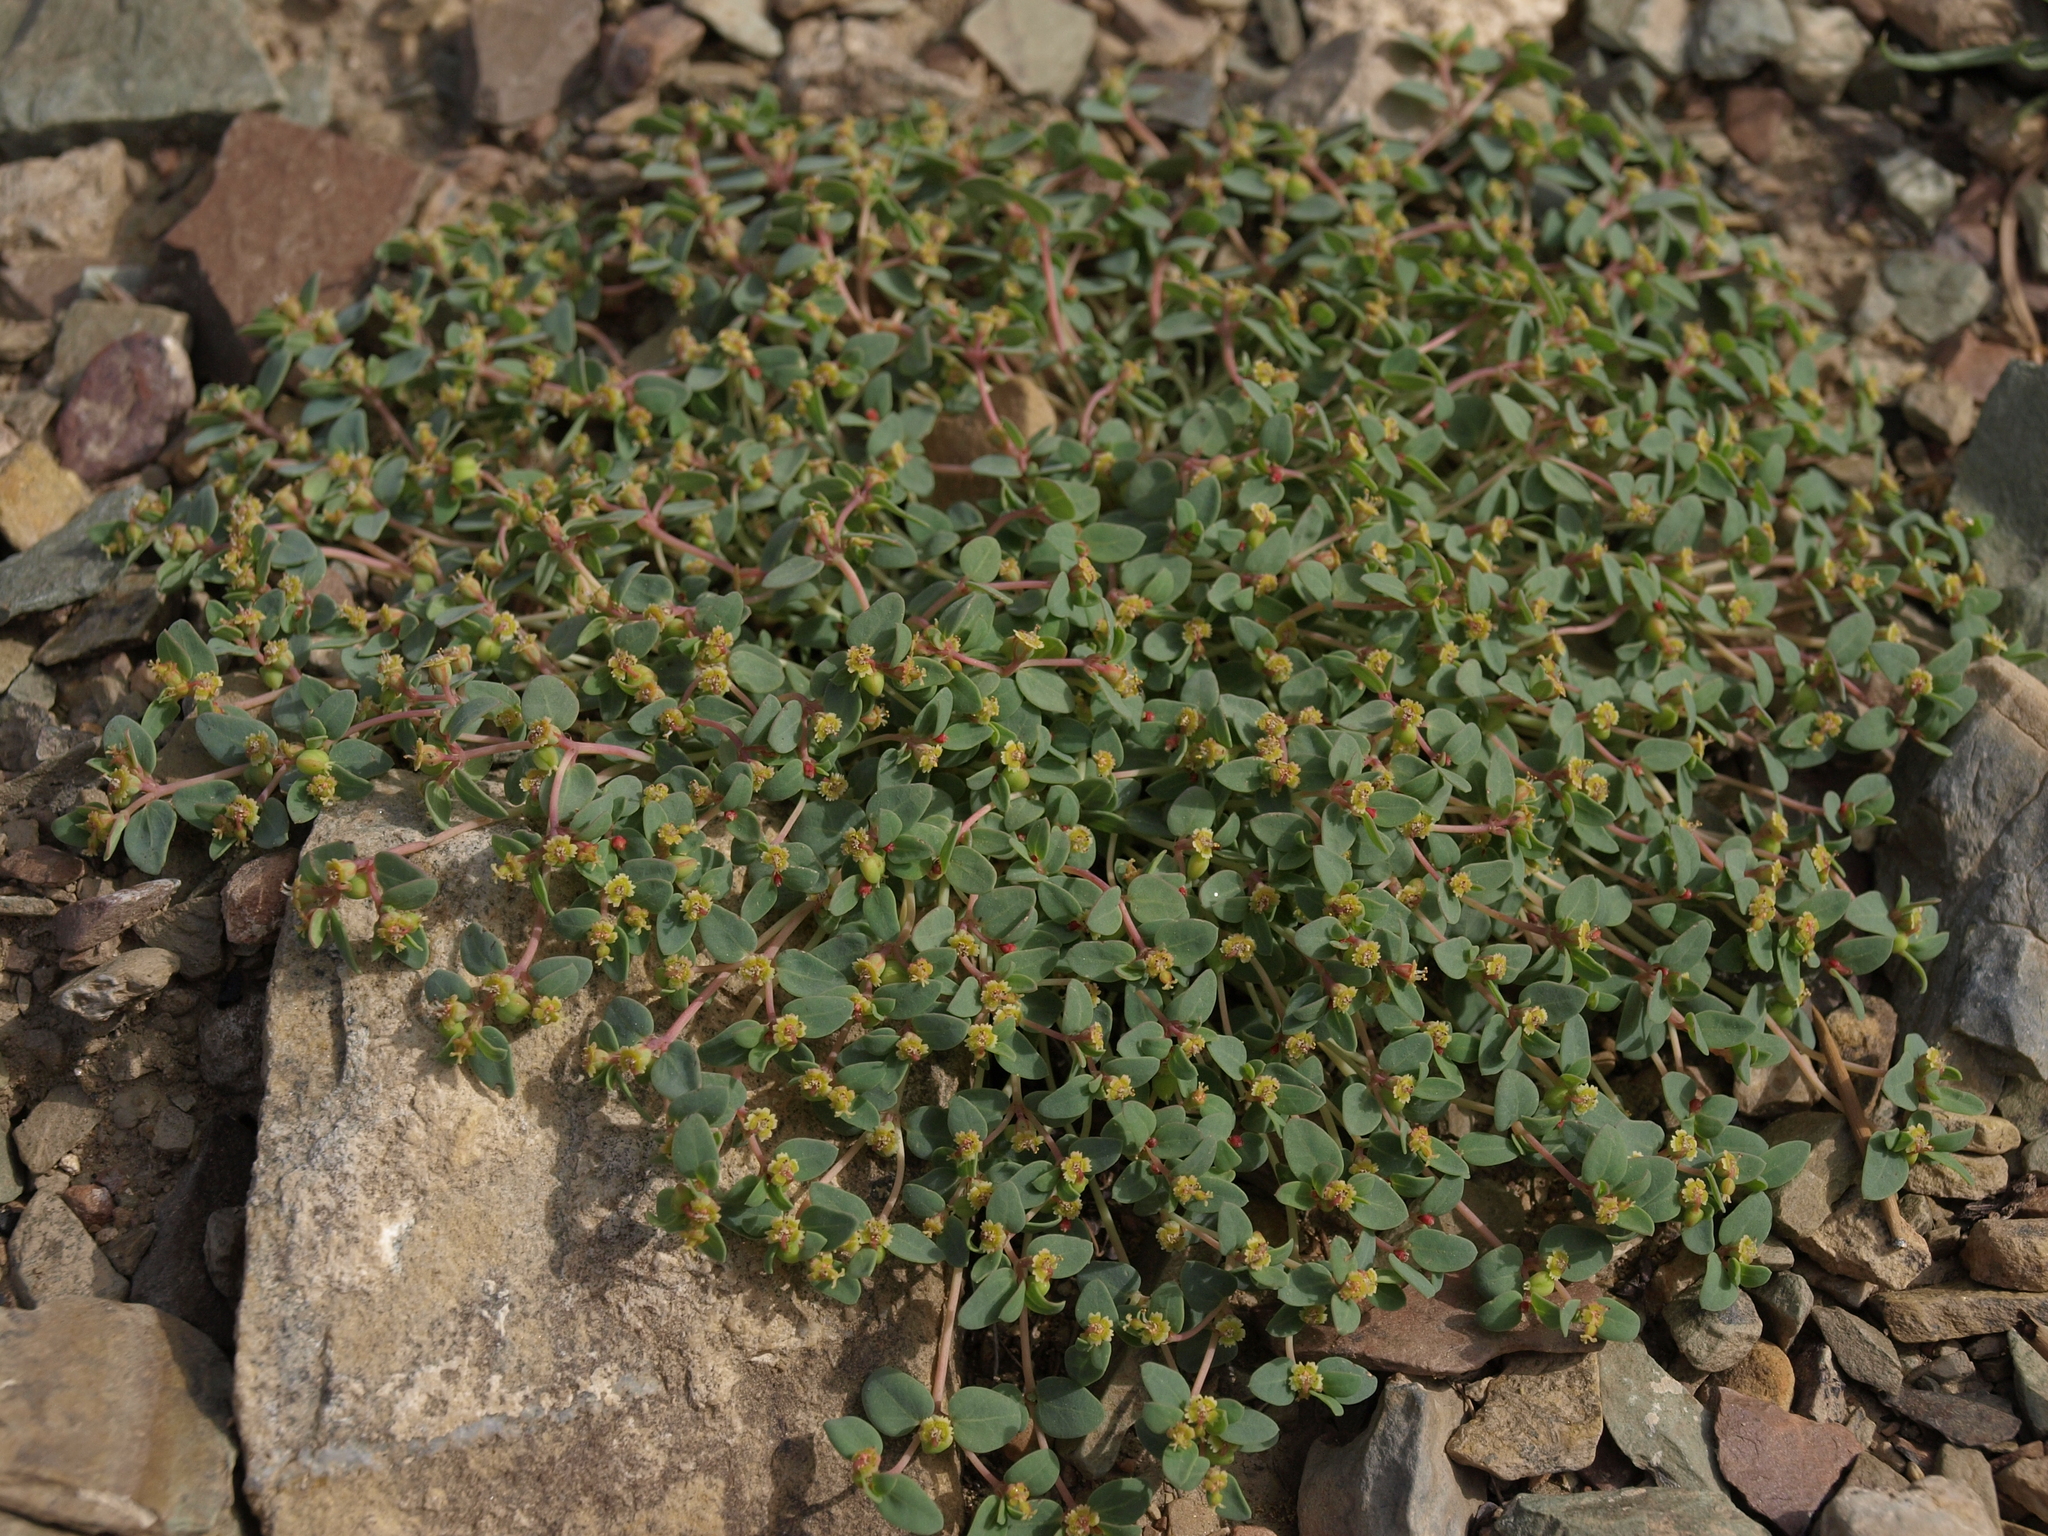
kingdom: Plantae
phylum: Tracheophyta
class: Magnoliopsida
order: Malpighiales
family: Euphorbiaceae
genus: Euphorbia
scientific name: Euphorbia fendleri
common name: Fendler's euphorbia
